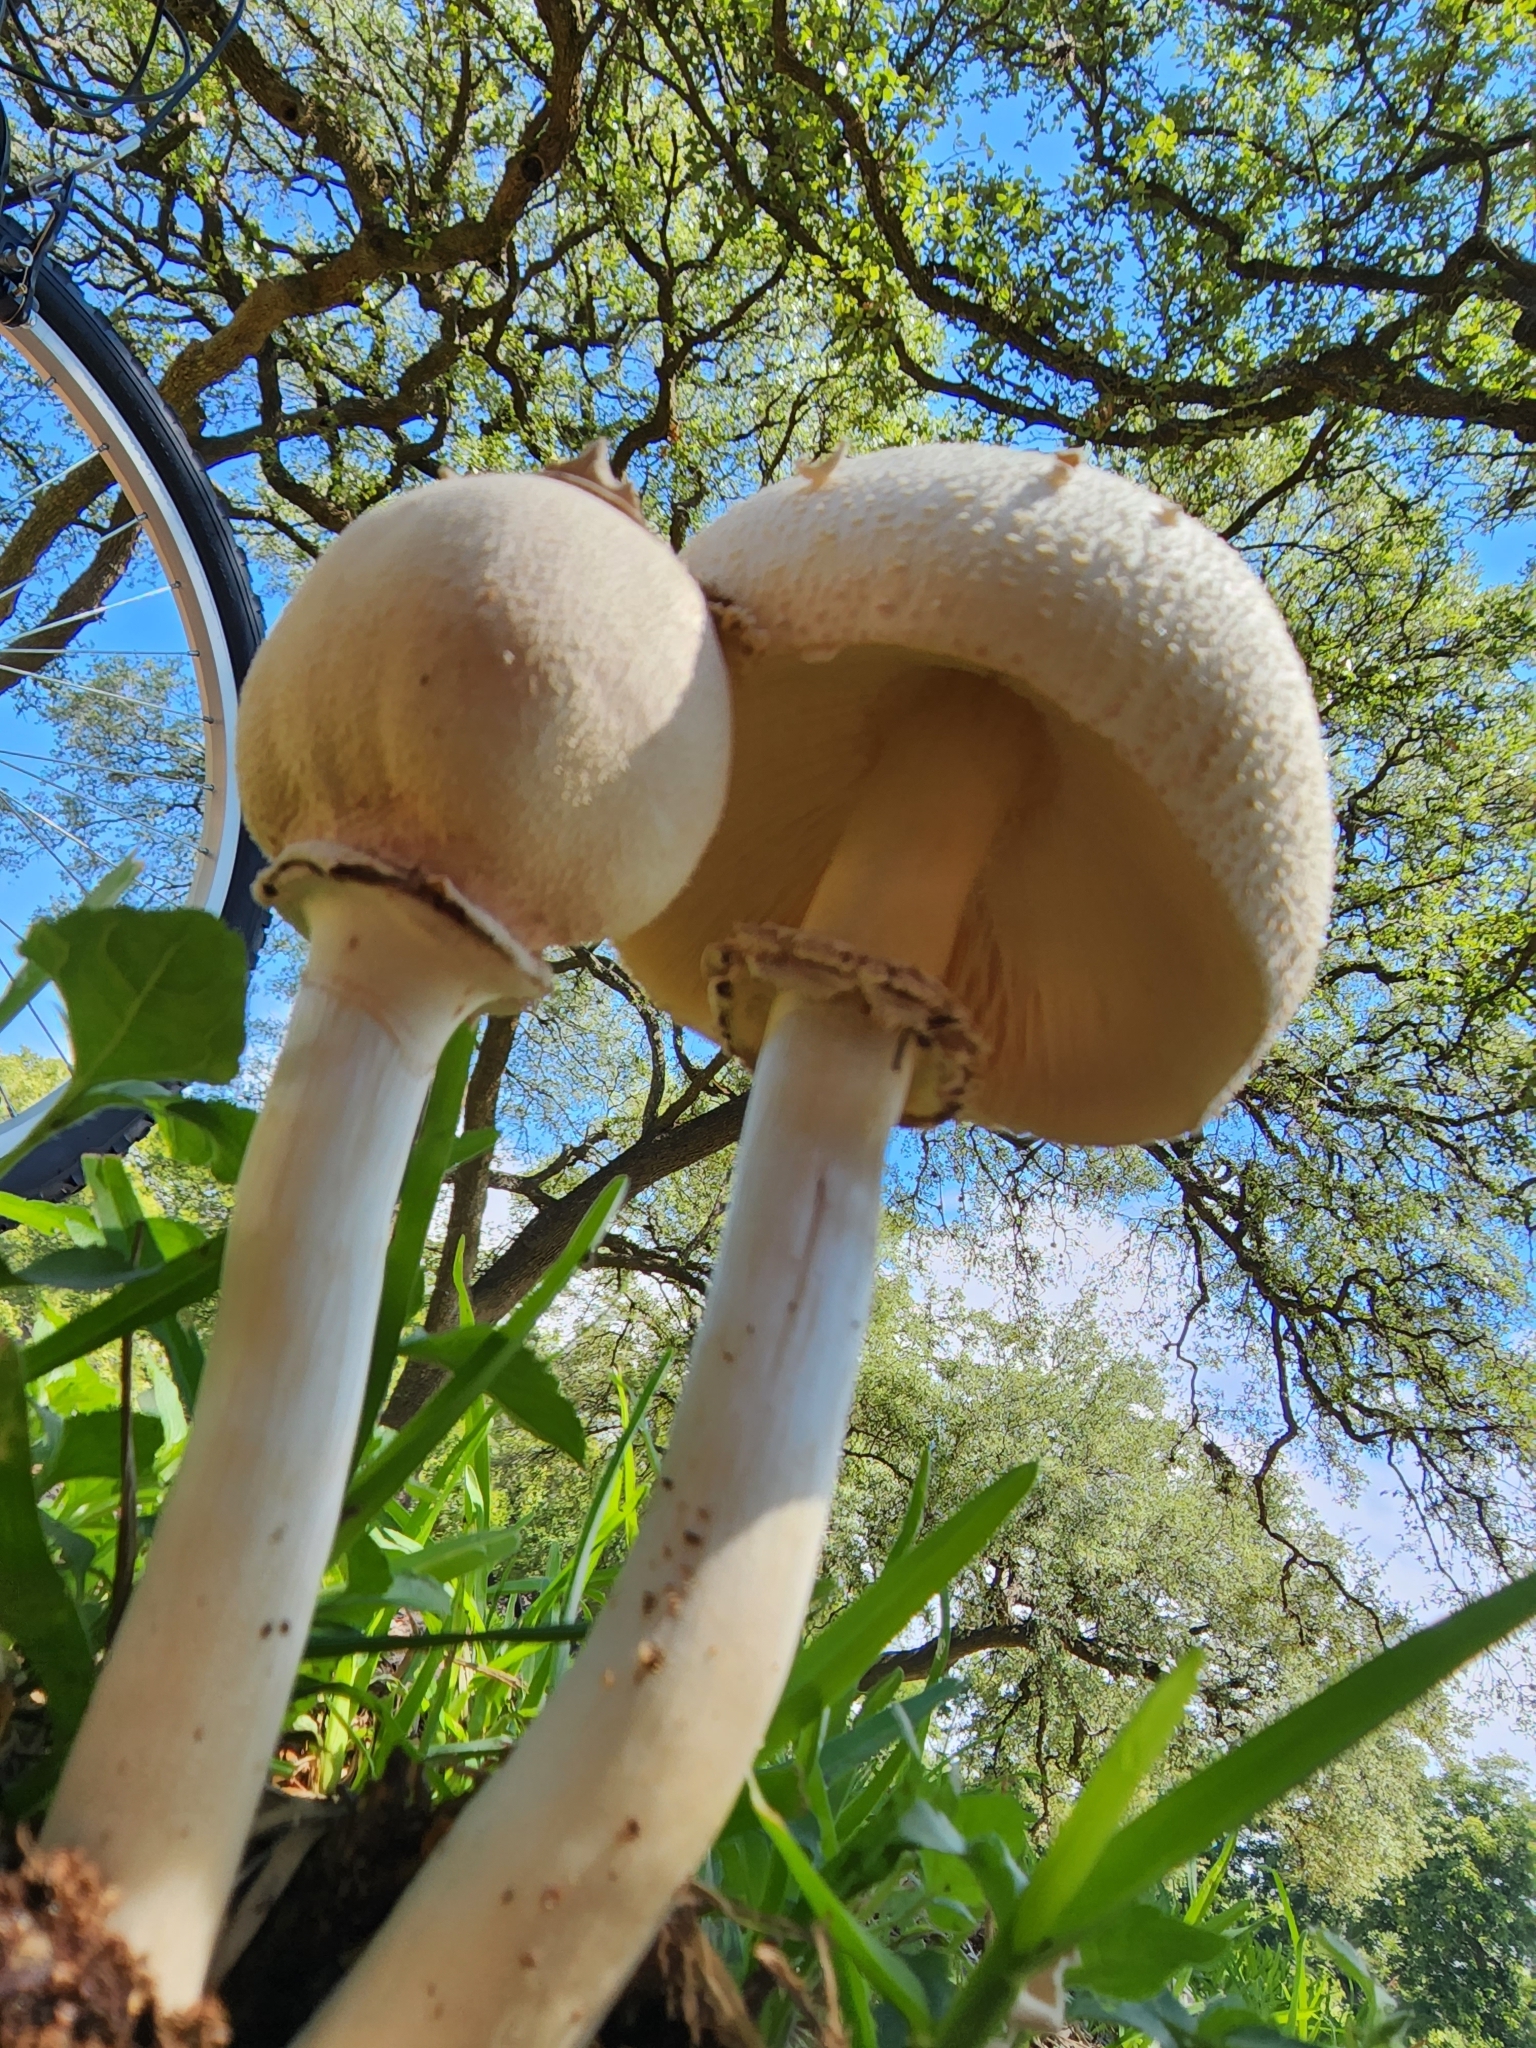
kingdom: Fungi
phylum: Basidiomycota
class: Agaricomycetes
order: Agaricales
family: Agaricaceae
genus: Chlorophyllum
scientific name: Chlorophyllum molybdites
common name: False parasol
